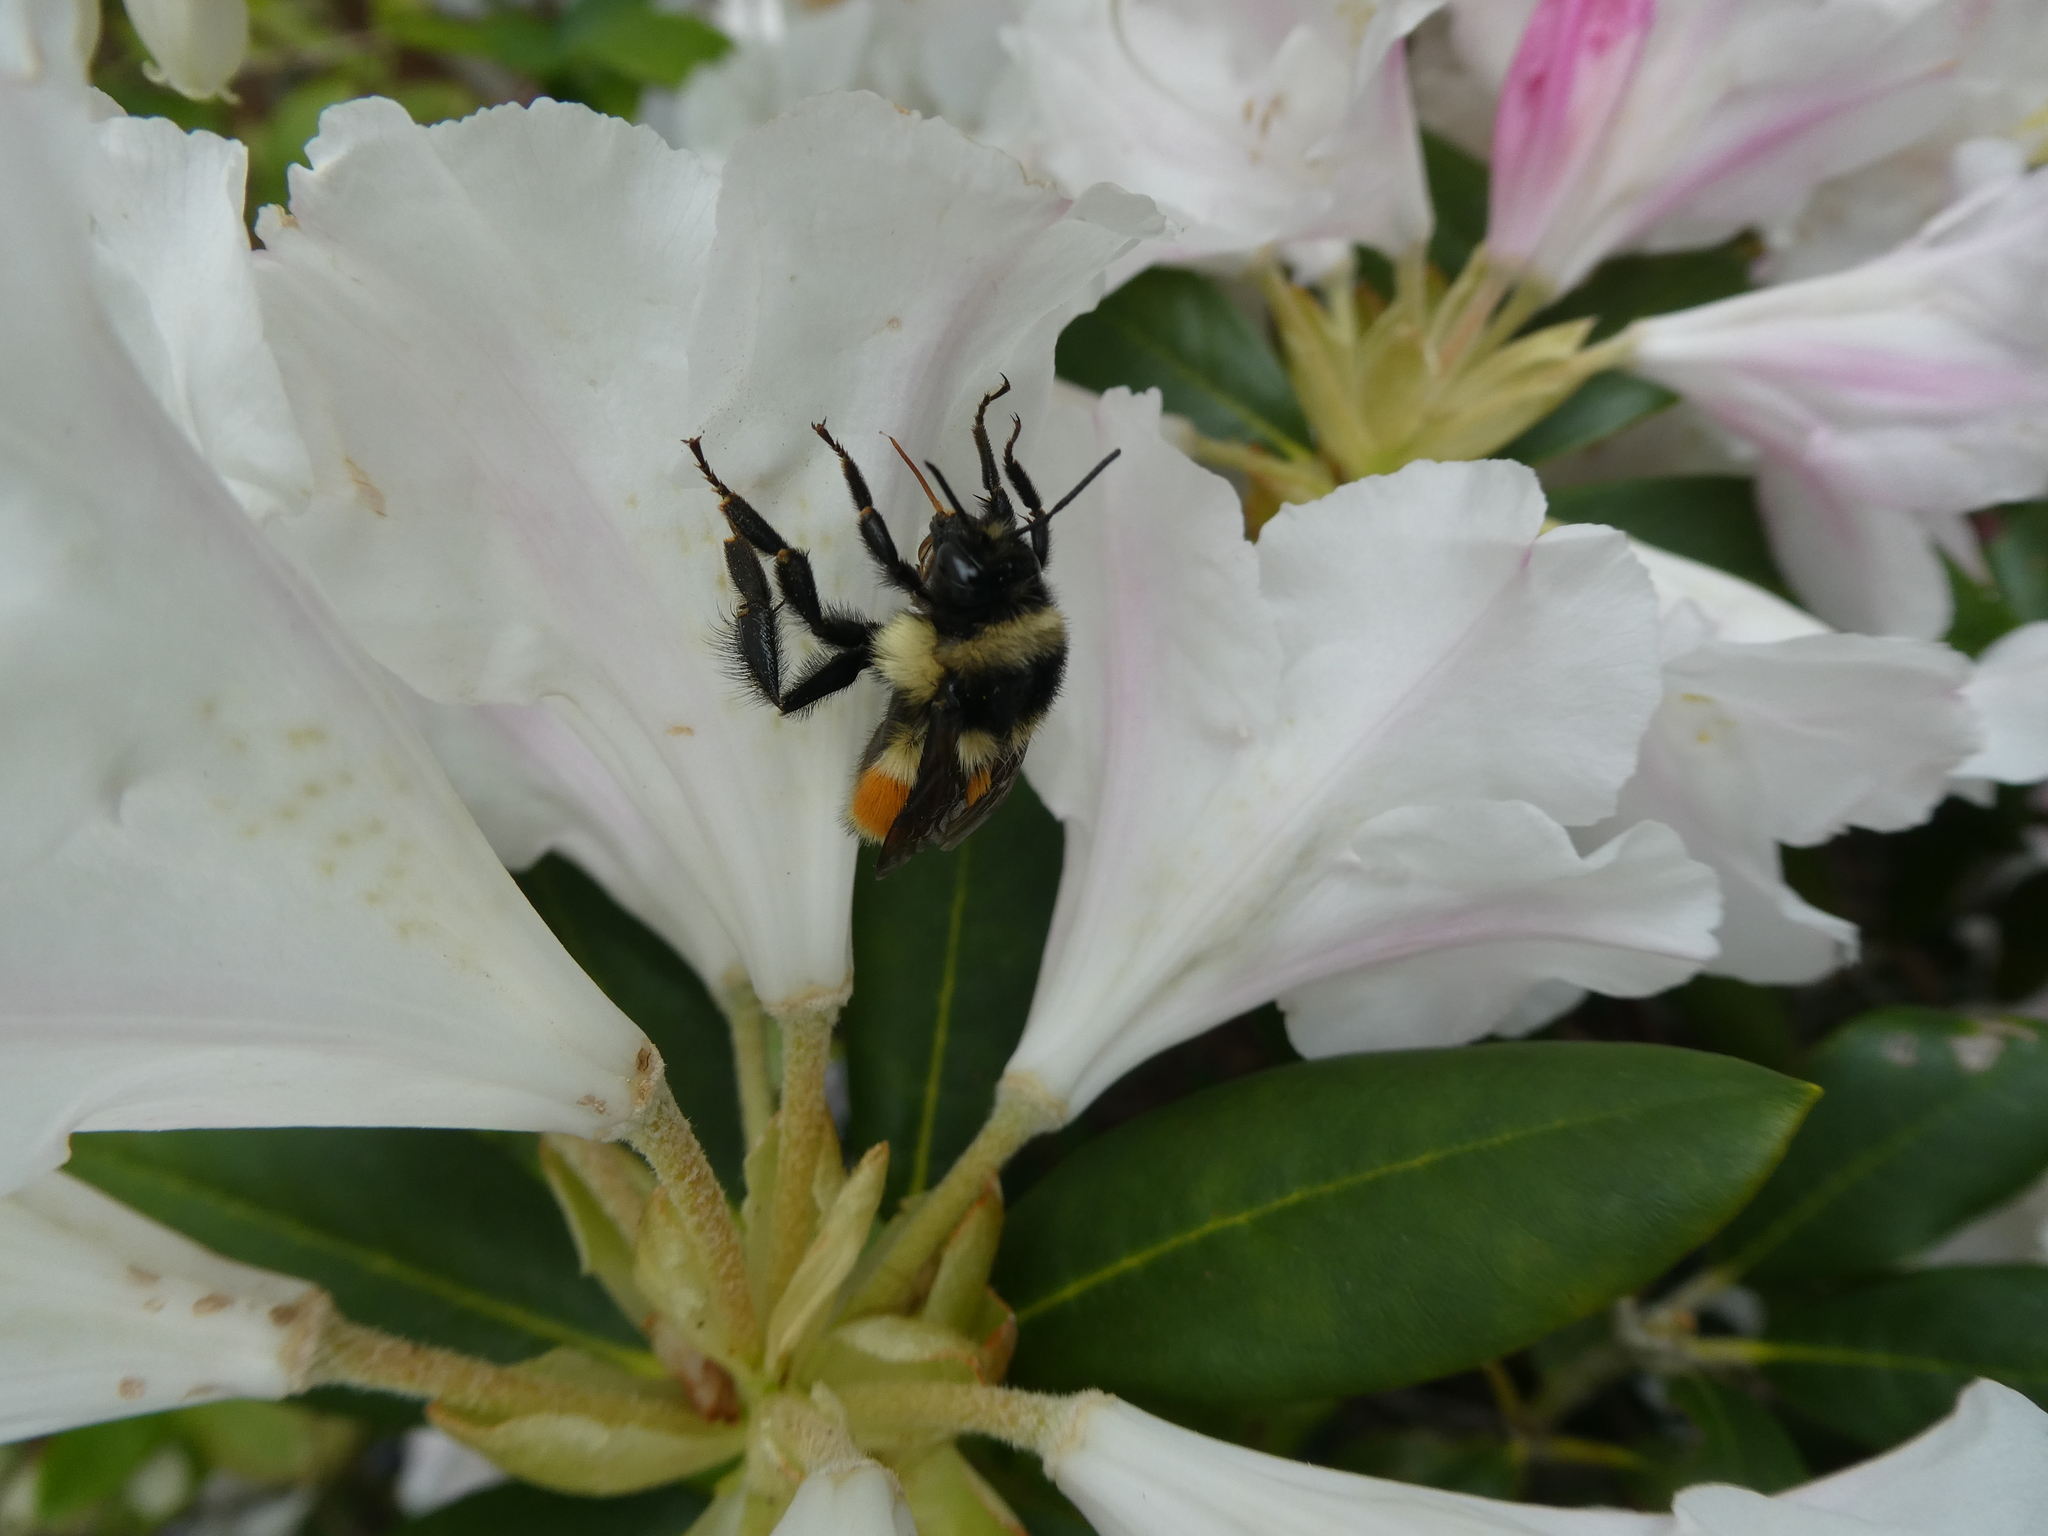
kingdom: Animalia
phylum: Arthropoda
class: Insecta
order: Hymenoptera
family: Apidae
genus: Bombus
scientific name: Bombus ternarius
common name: Tri-colored bumble bee
